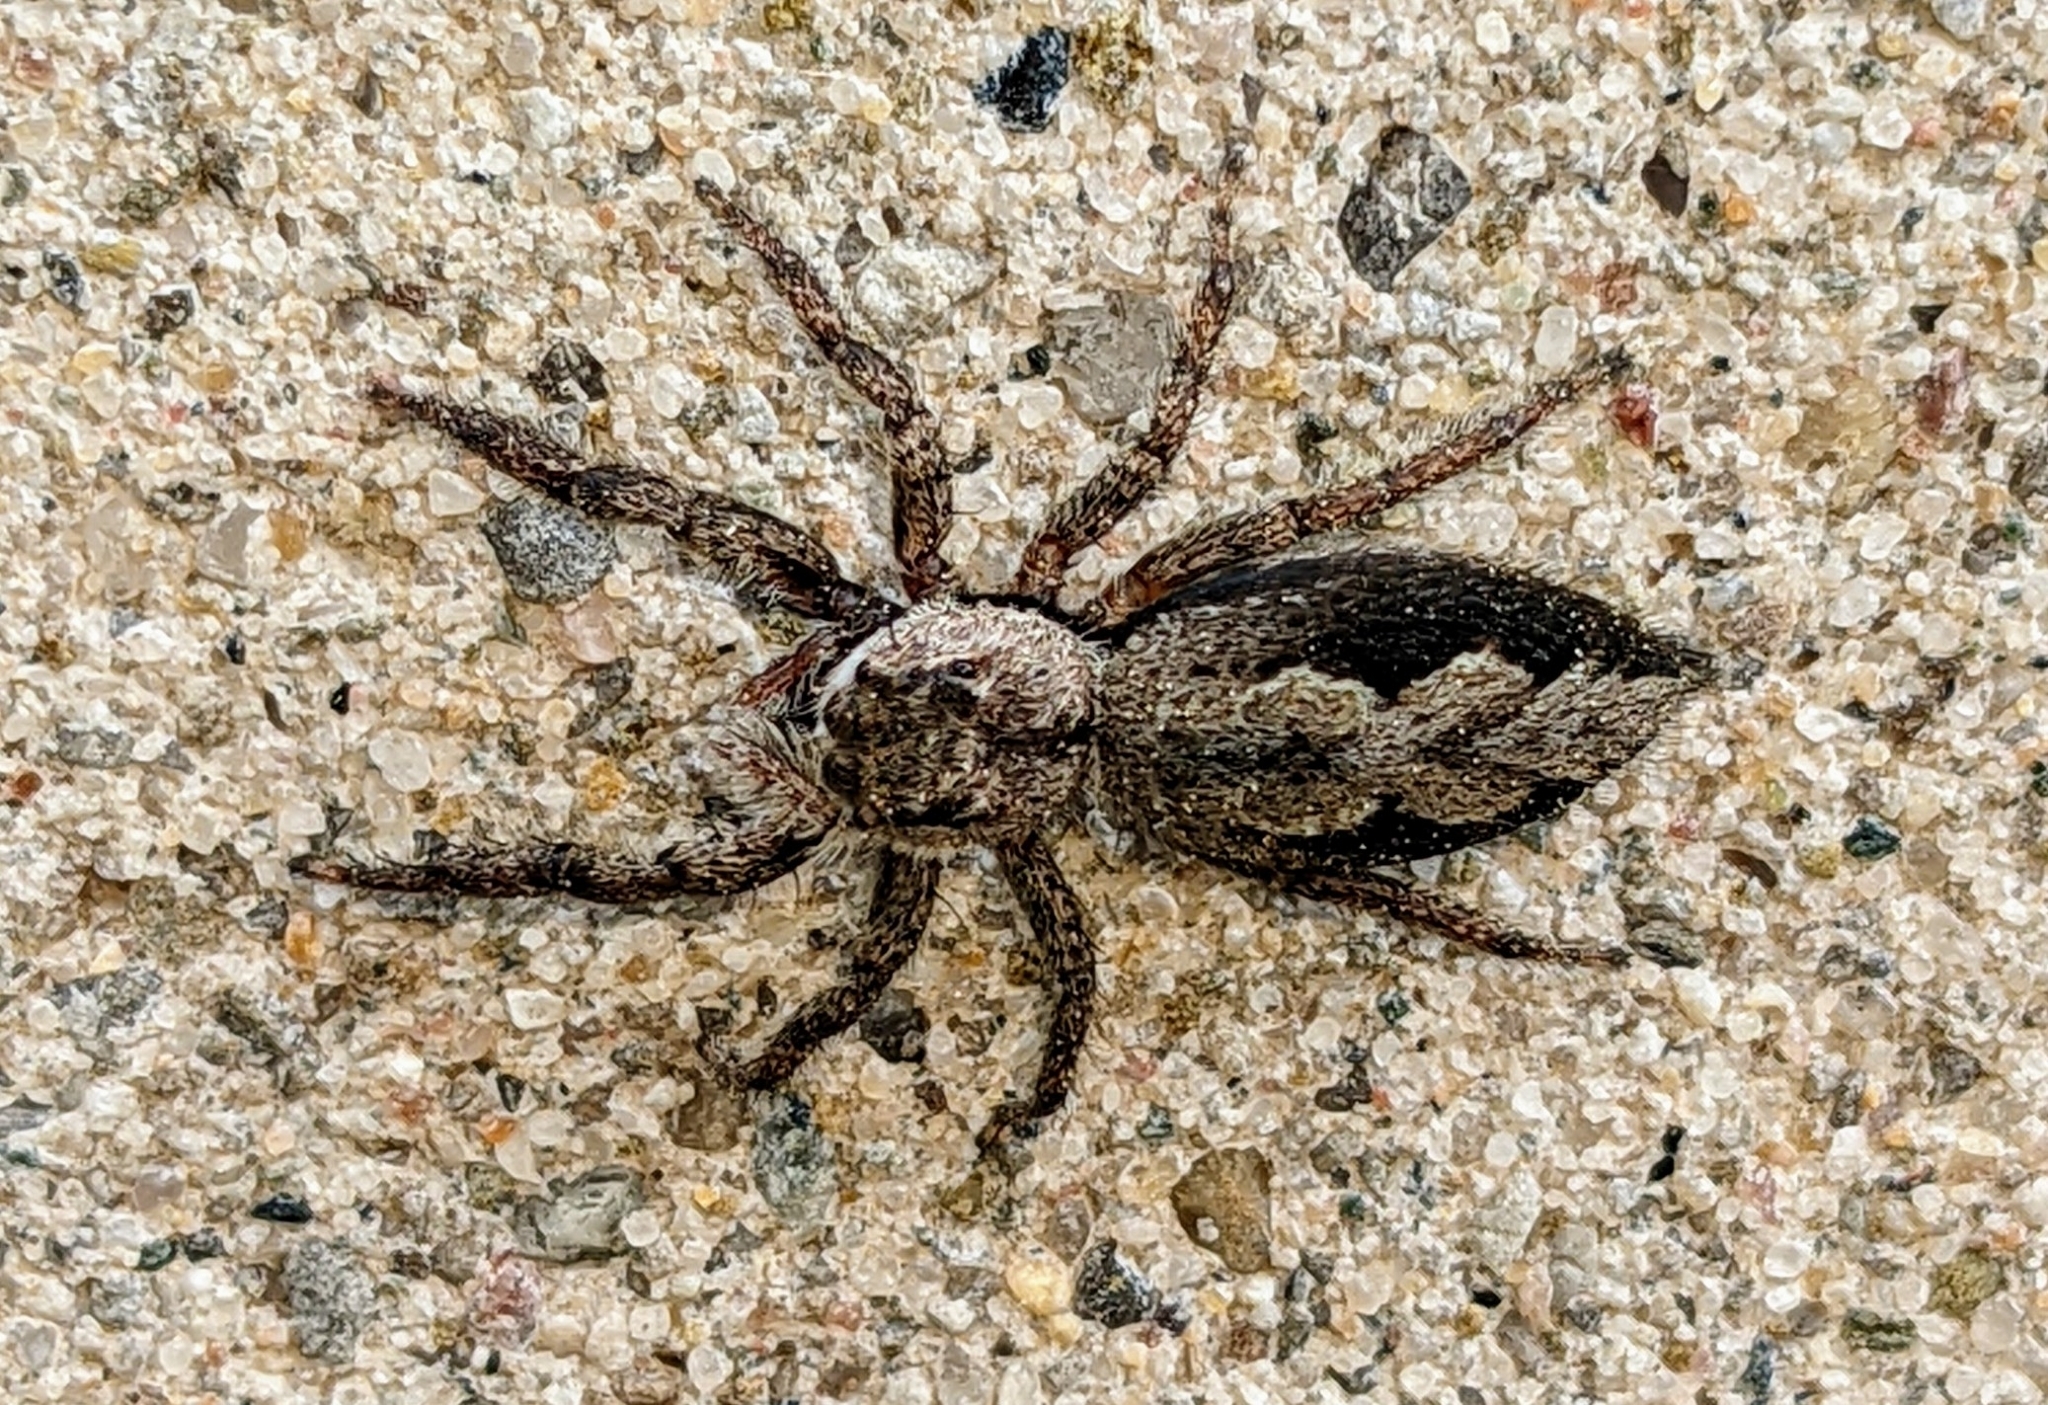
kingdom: Animalia
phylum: Arthropoda
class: Arachnida
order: Araneae
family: Salticidae
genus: Platycryptus
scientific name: Platycryptus undatus
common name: Tan jumping spider
